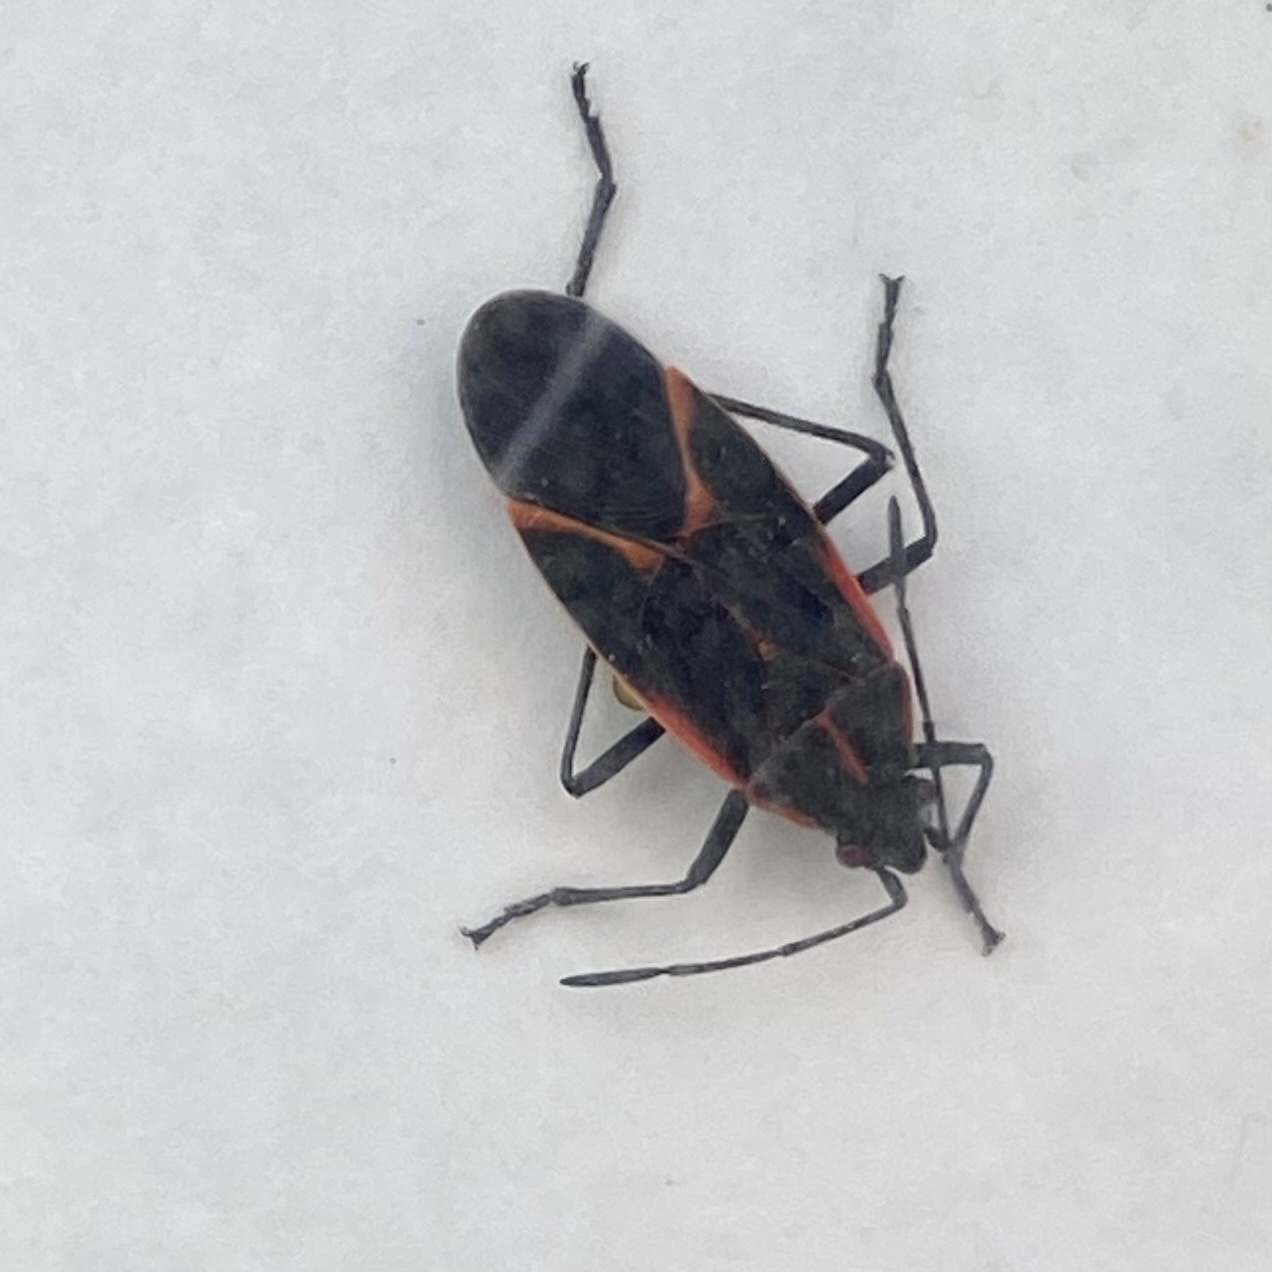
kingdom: Animalia
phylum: Arthropoda
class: Insecta
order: Hemiptera
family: Rhopalidae
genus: Boisea
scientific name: Boisea trivittata
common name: Boxelder bug
